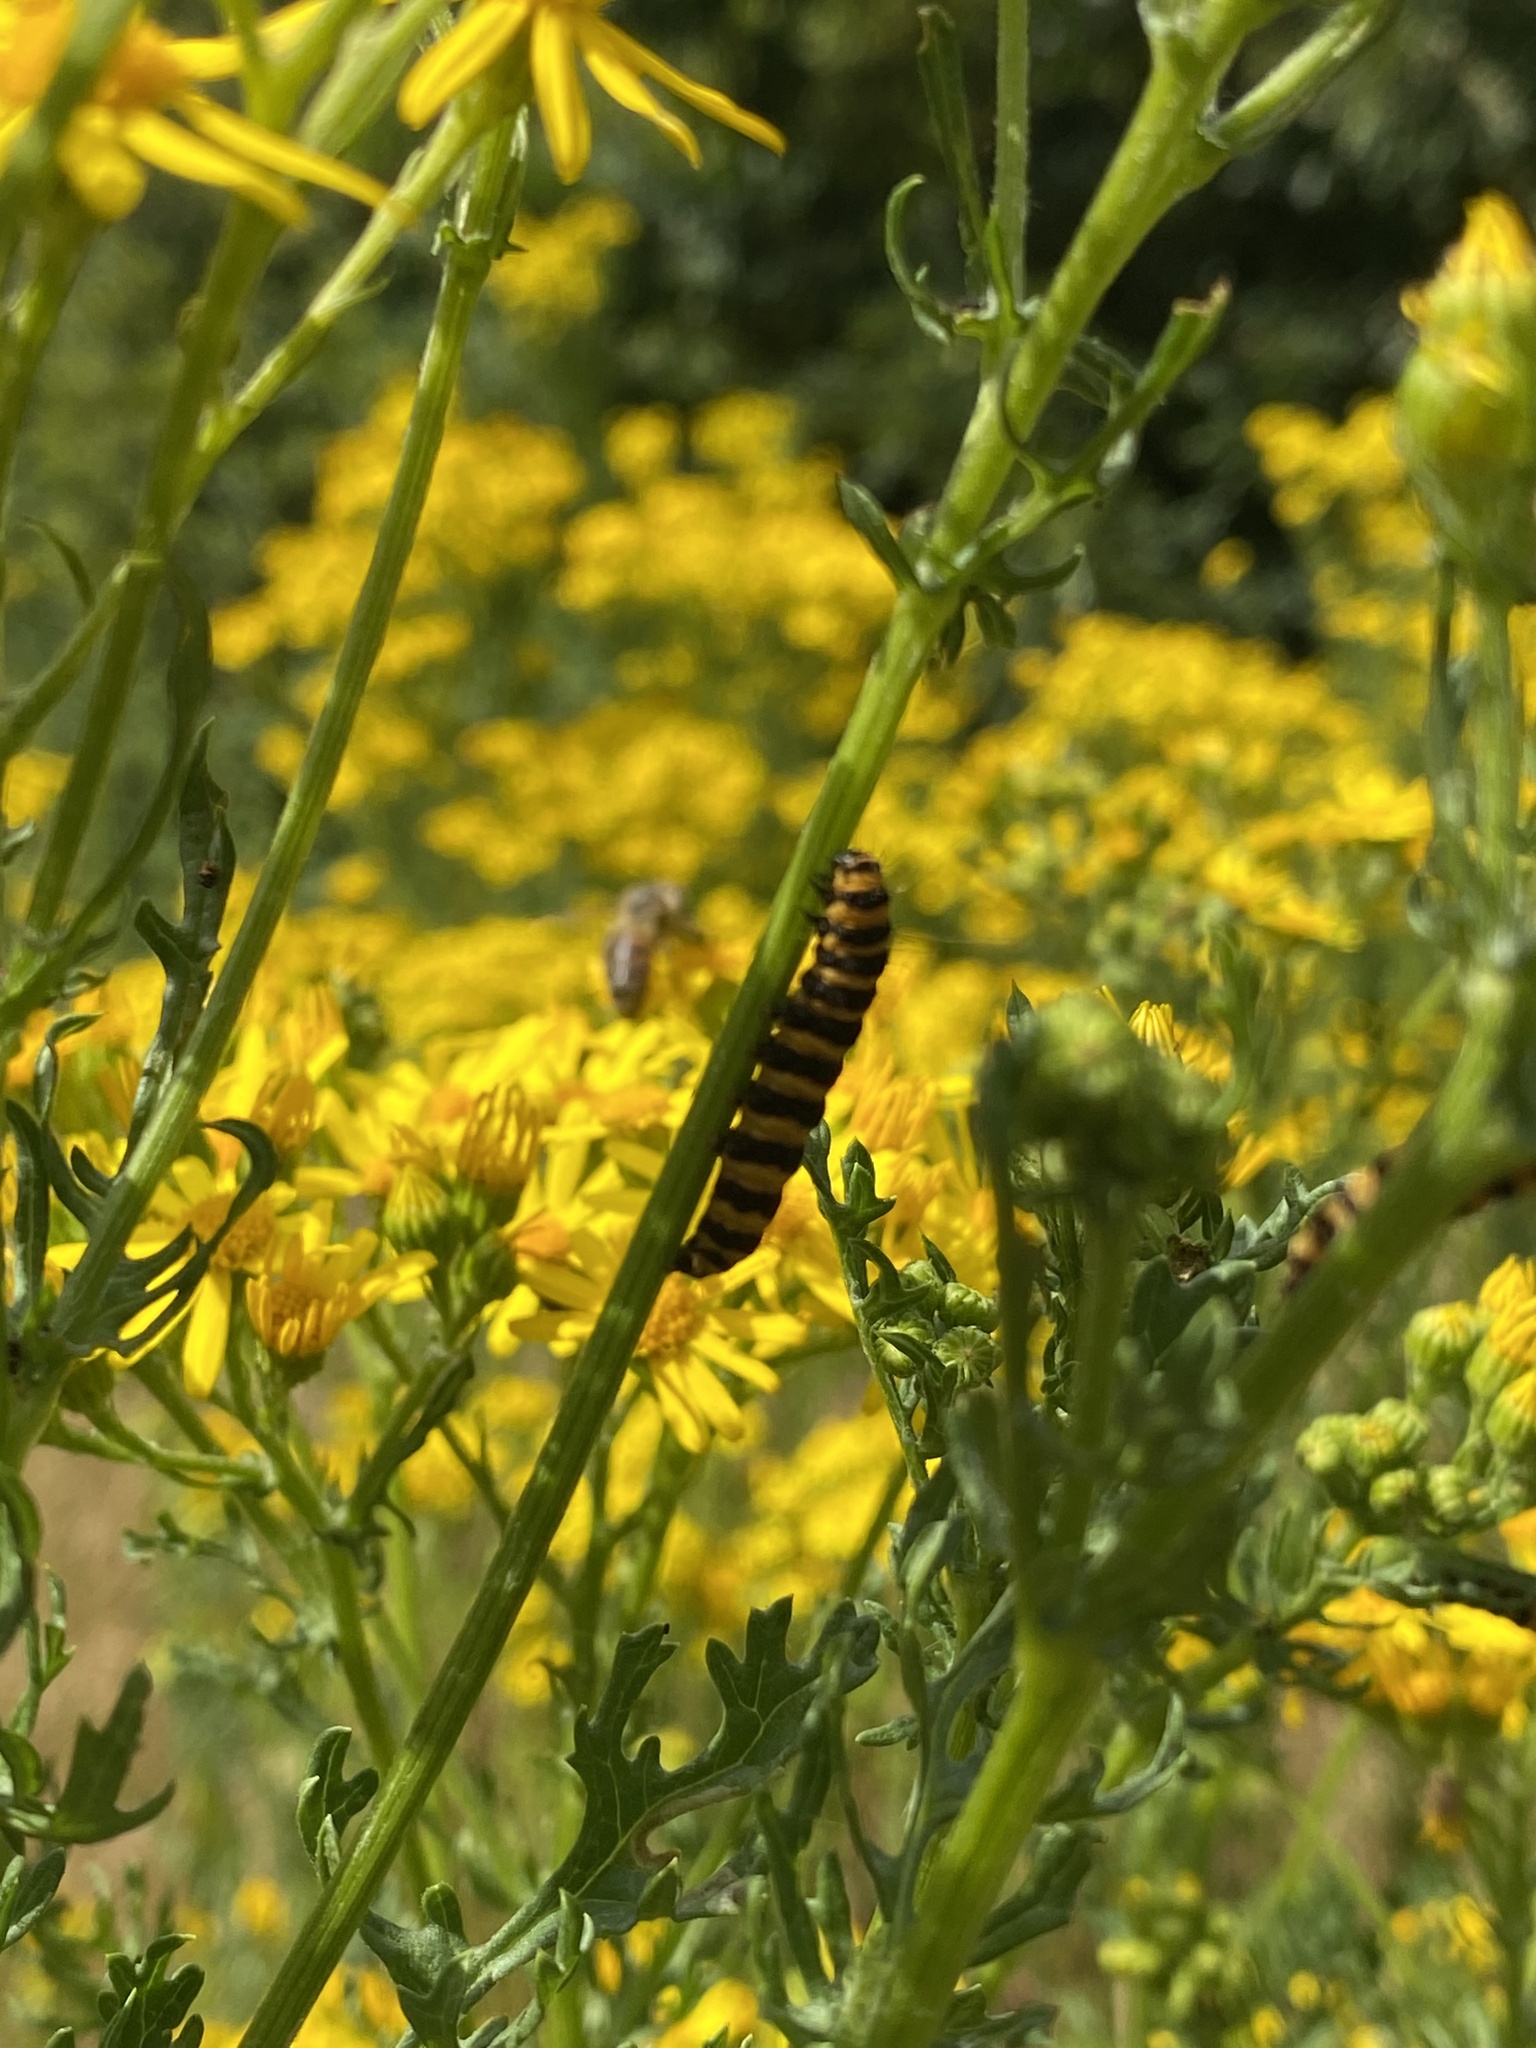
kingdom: Animalia
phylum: Arthropoda
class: Insecta
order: Lepidoptera
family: Erebidae
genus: Tyria
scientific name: Tyria jacobaeae
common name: Cinnabar
